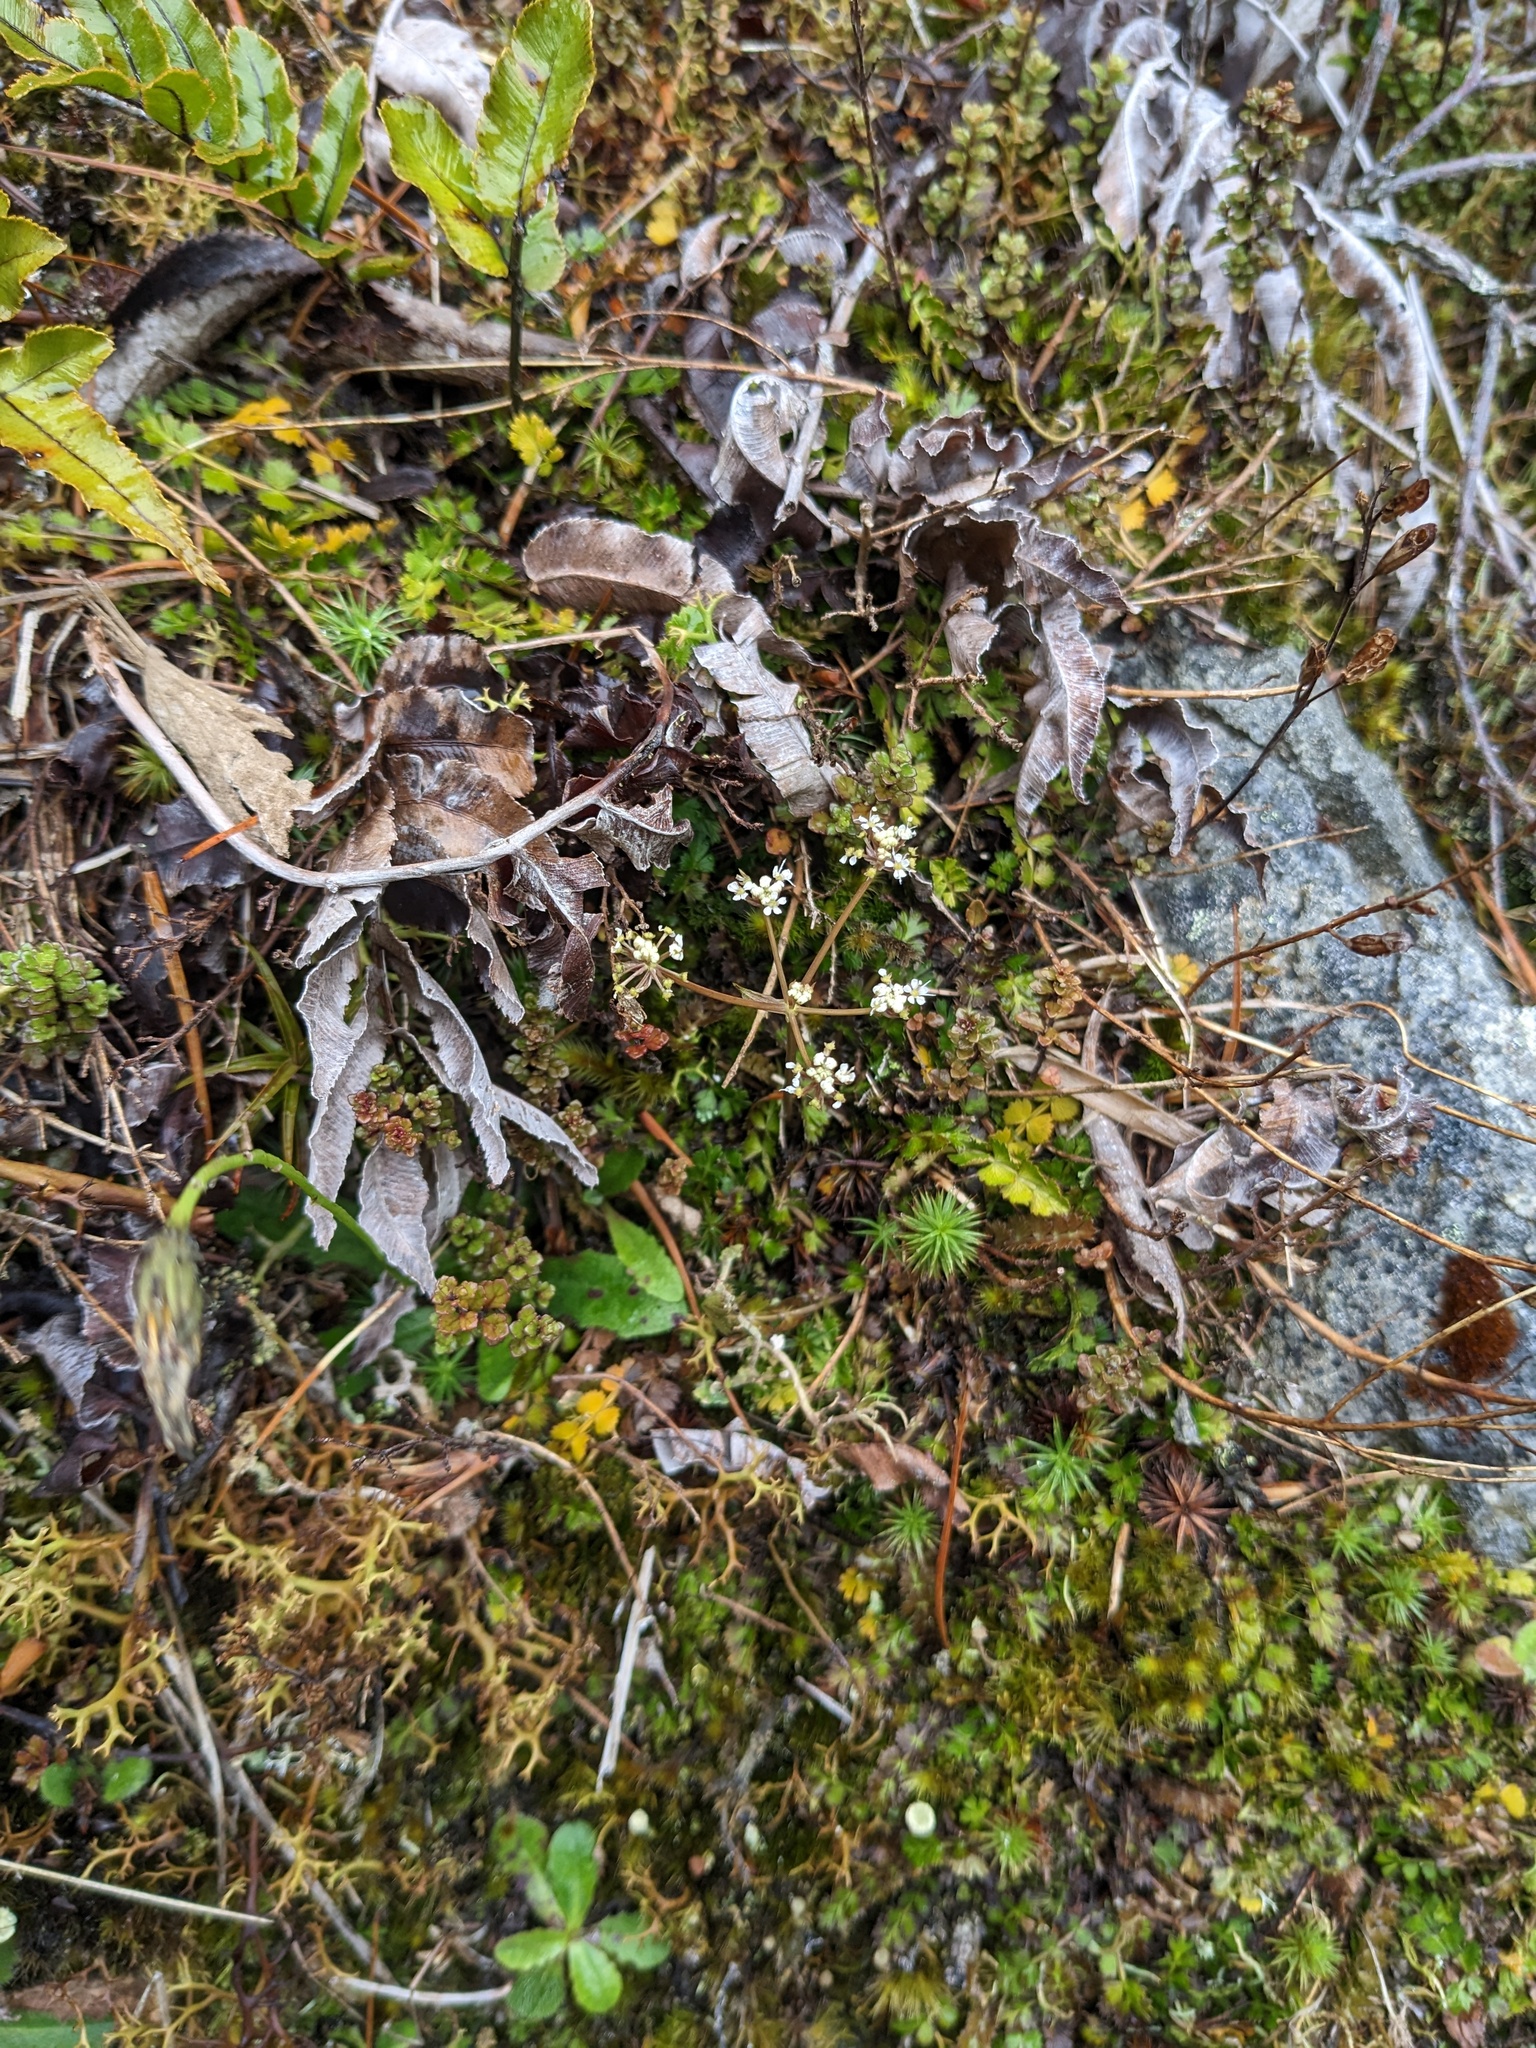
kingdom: Plantae
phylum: Tracheophyta
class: Magnoliopsida
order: Apiales
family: Apiaceae
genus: Anisotome
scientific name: Anisotome aromatica
